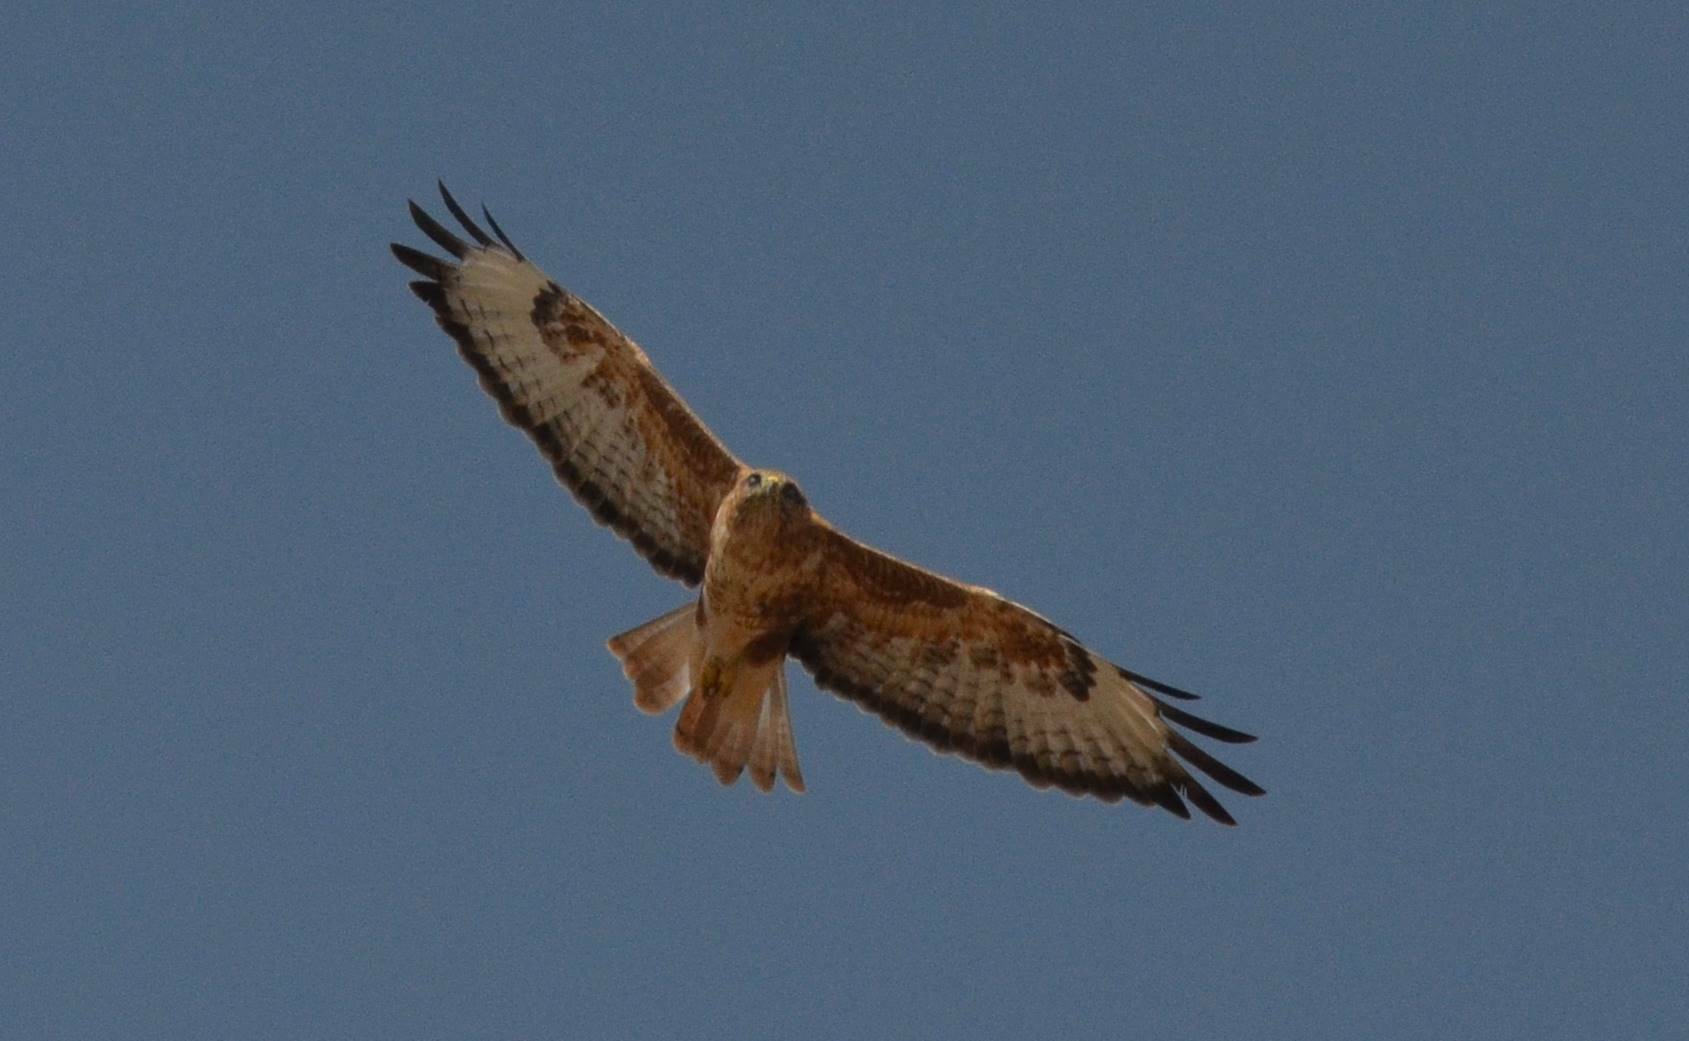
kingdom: Animalia
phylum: Chordata
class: Aves
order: Accipitriformes
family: Accipitridae
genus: Buteo
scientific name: Buteo rufinus
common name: Long-legged buzzard
